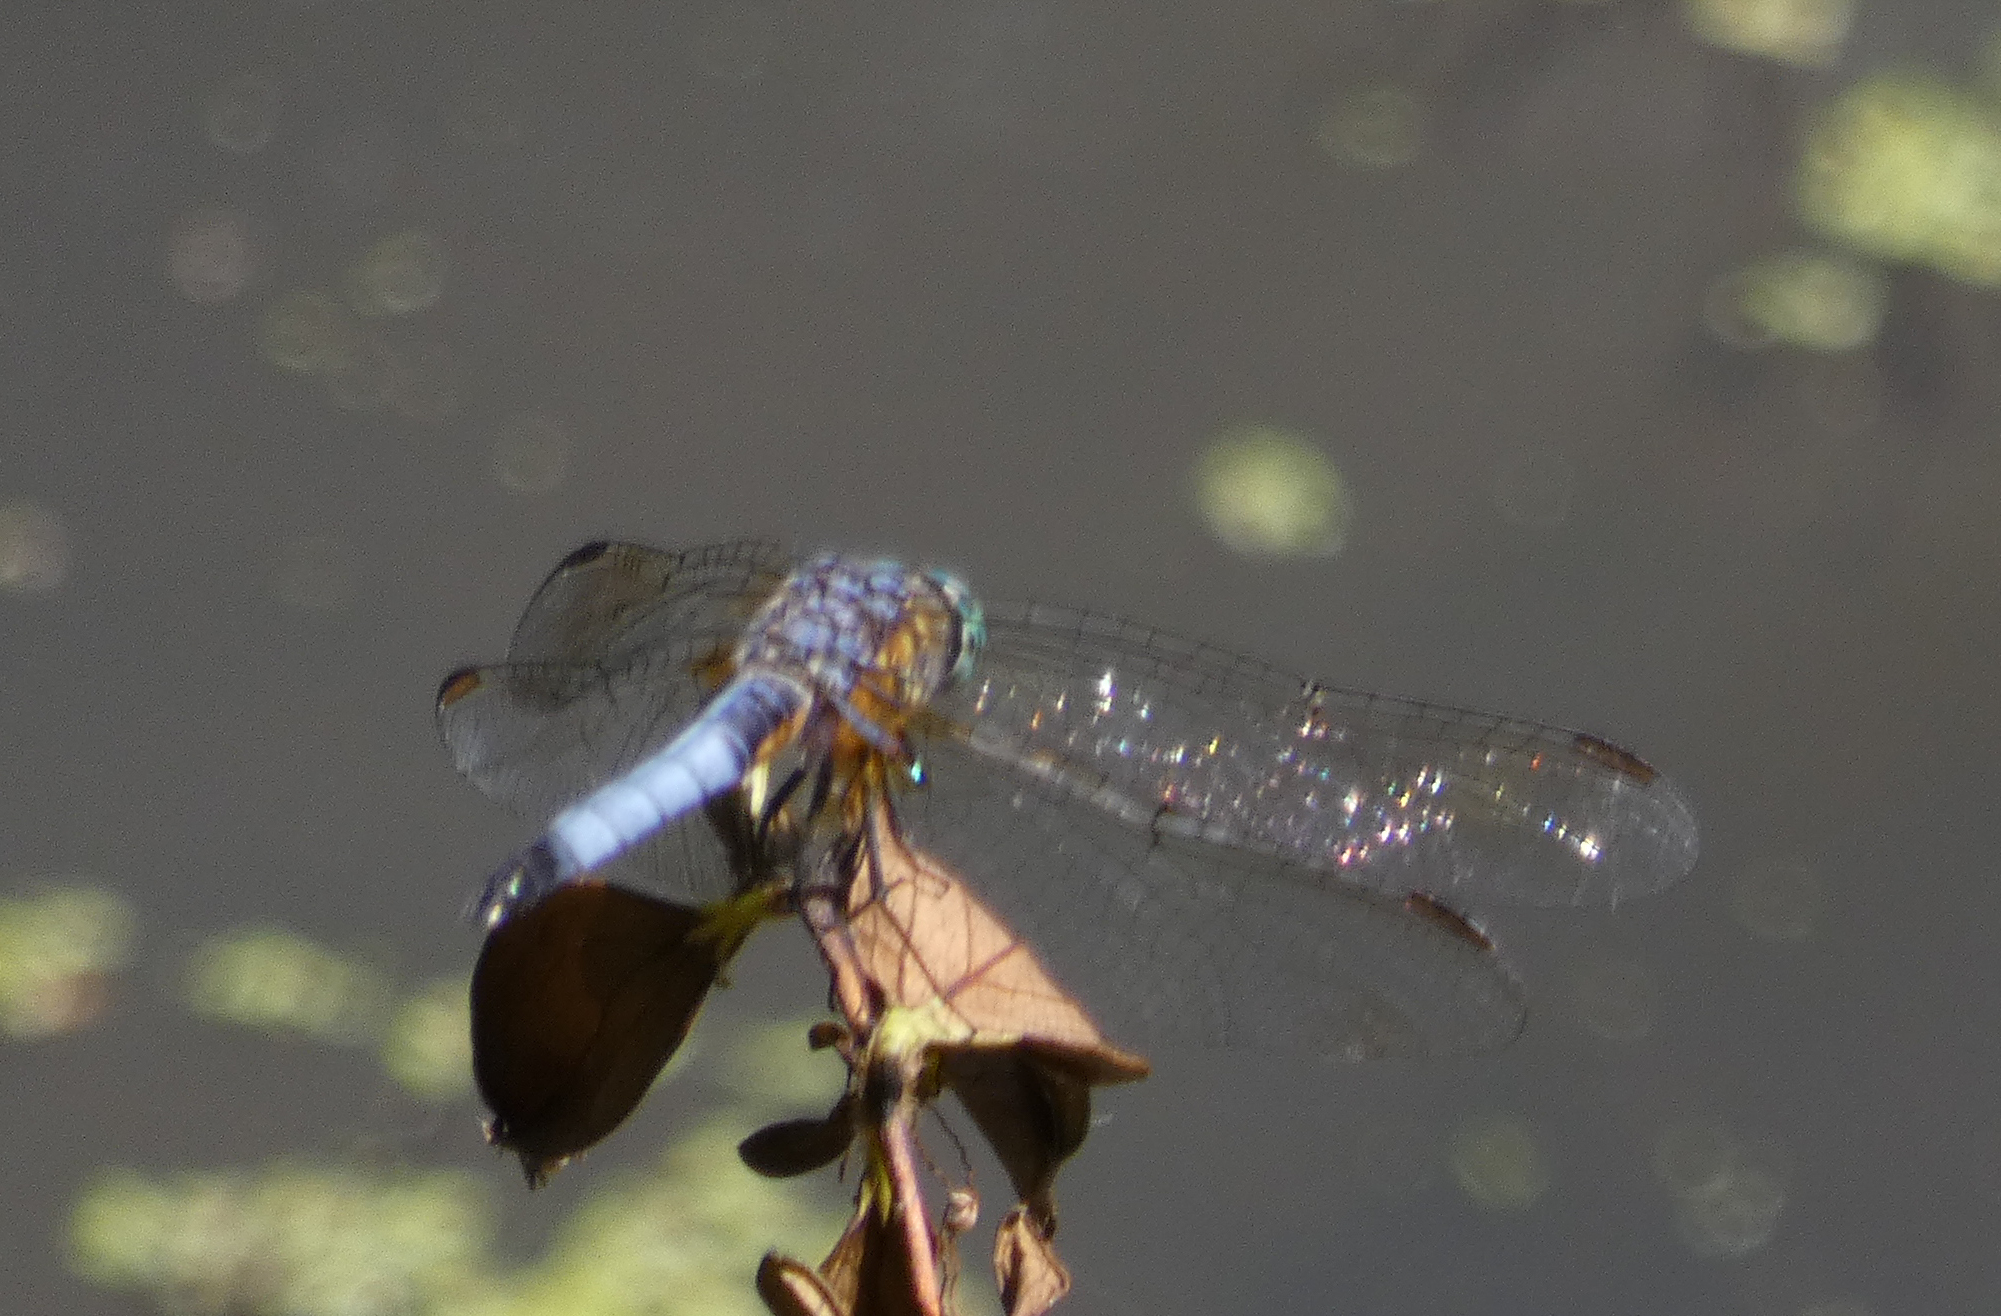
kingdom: Animalia
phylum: Arthropoda
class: Insecta
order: Odonata
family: Libellulidae
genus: Pachydiplax
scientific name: Pachydiplax longipennis
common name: Blue dasher
